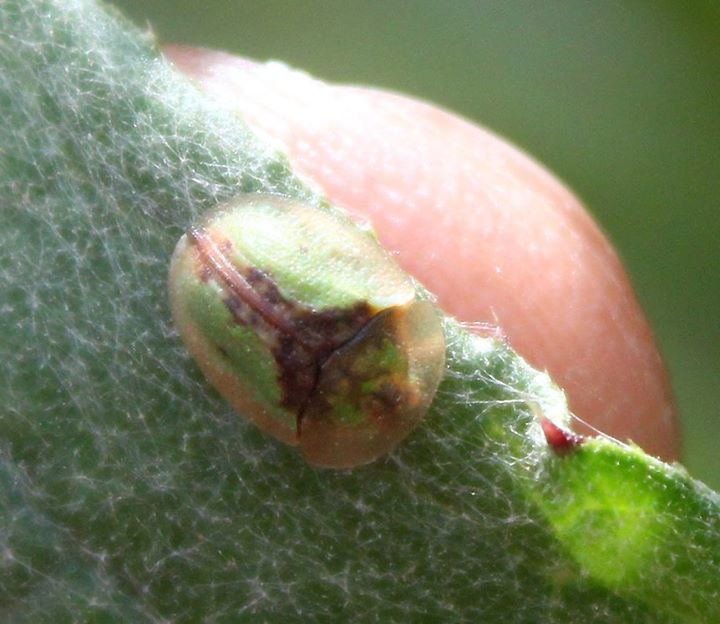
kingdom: Animalia
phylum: Arthropoda
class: Insecta
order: Coleoptera
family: Chrysomelidae
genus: Cassida
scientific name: Cassida vibex
